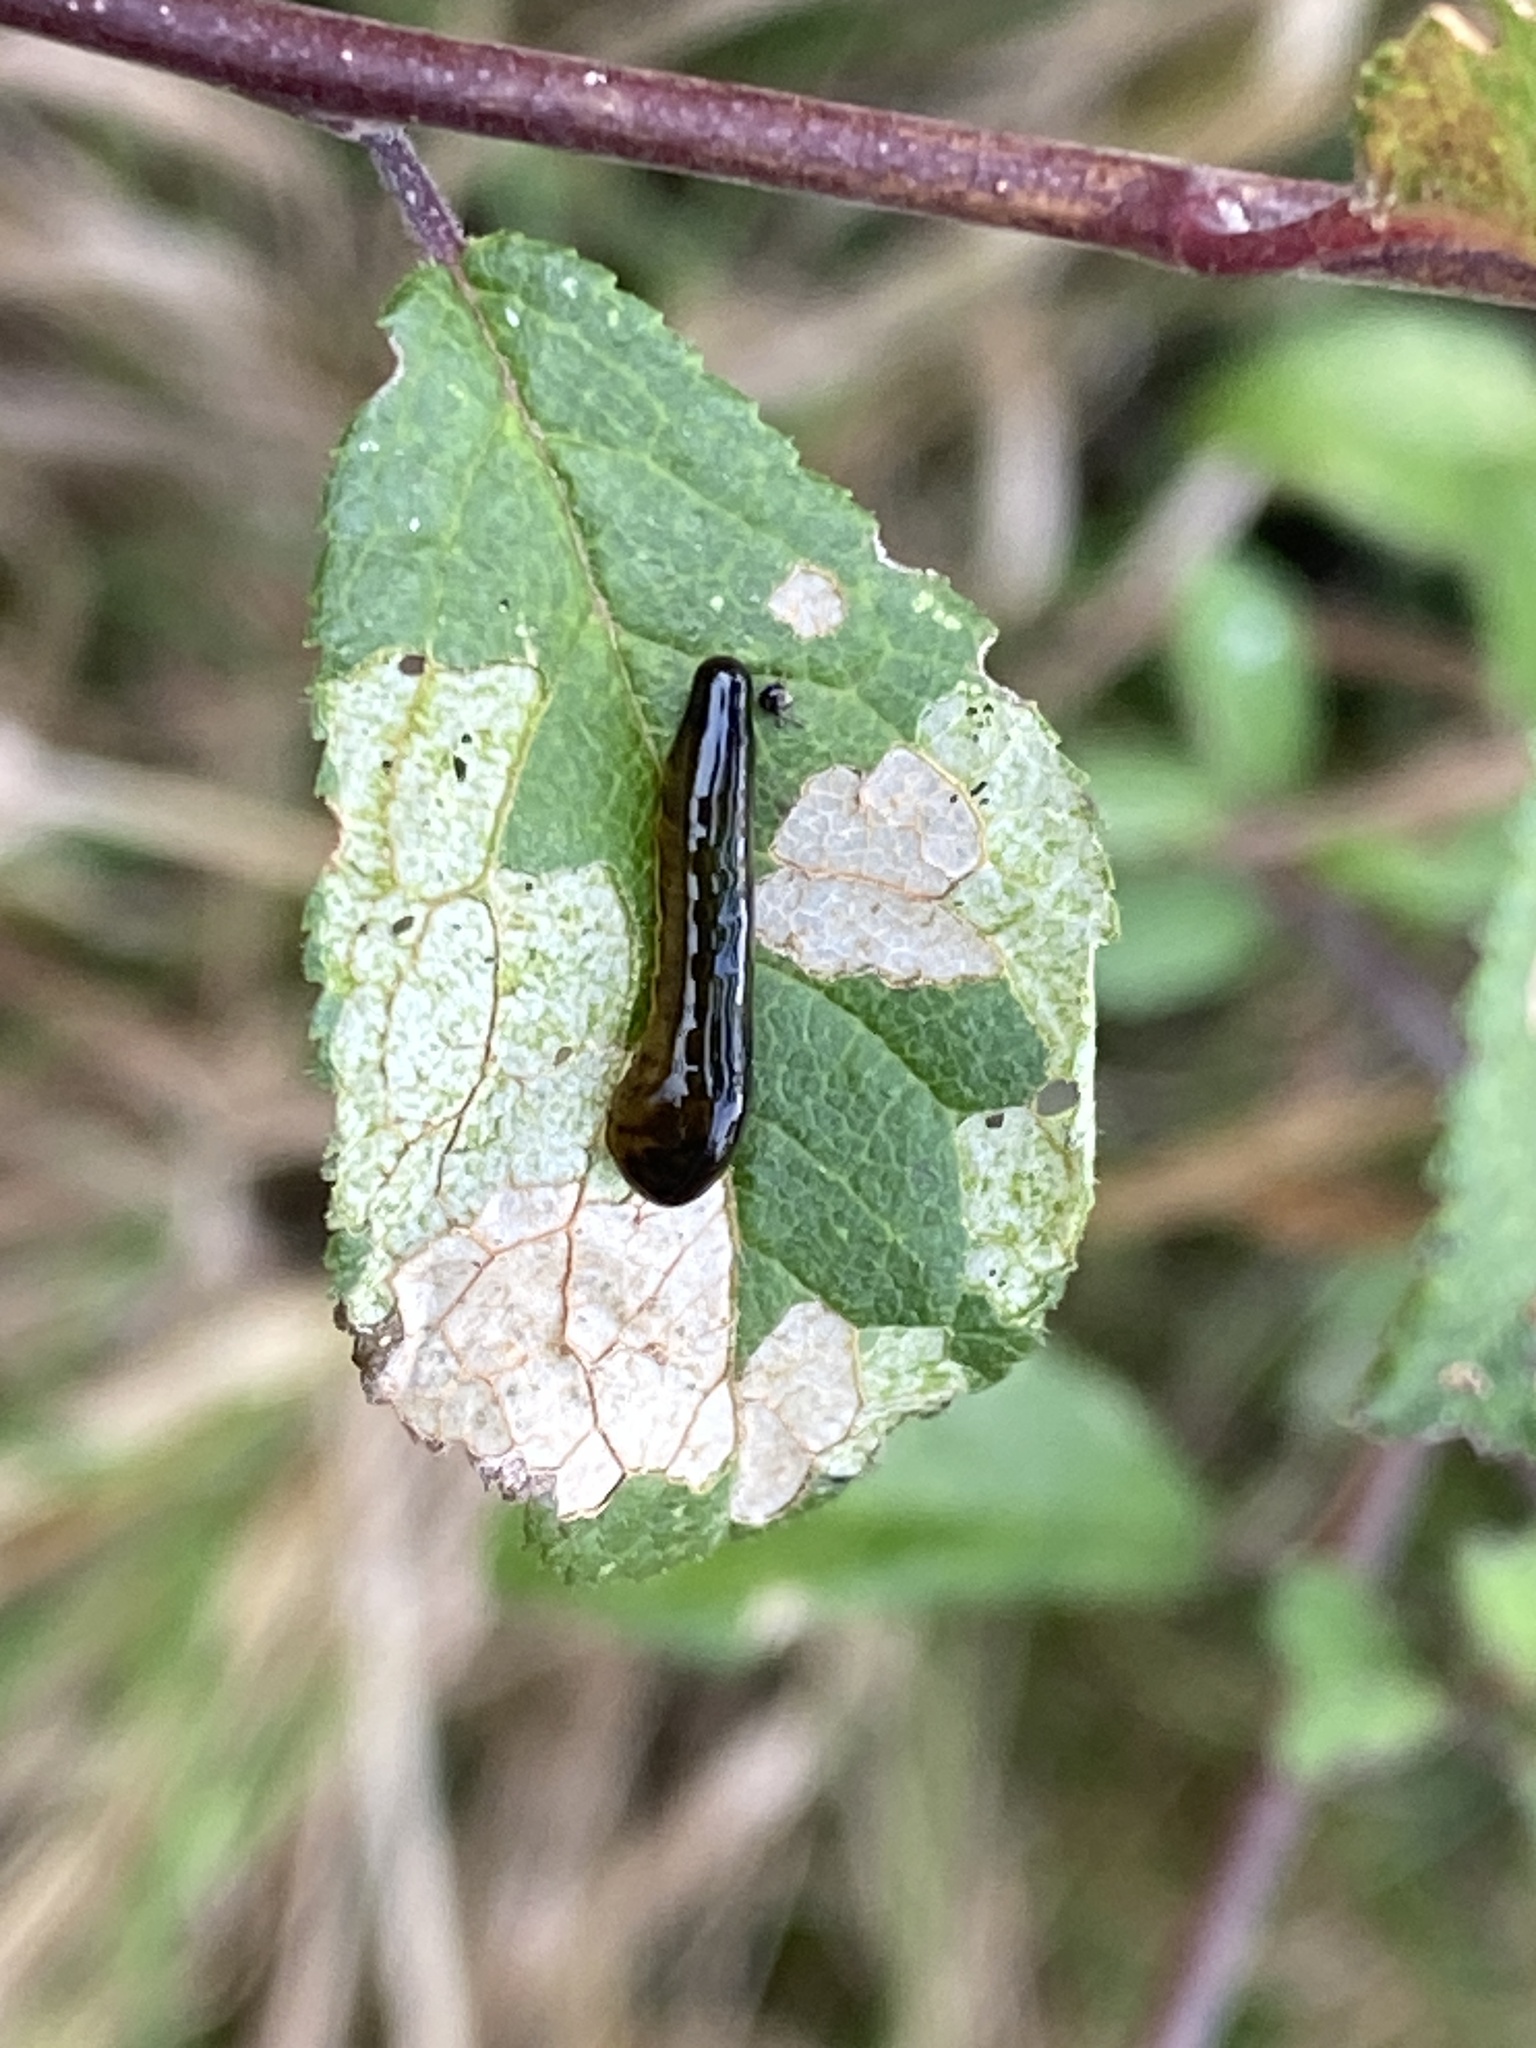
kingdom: Animalia
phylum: Arthropoda
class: Insecta
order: Hymenoptera
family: Tenthredinidae
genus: Caliroa
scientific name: Caliroa cerasi
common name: Pear sawfly
